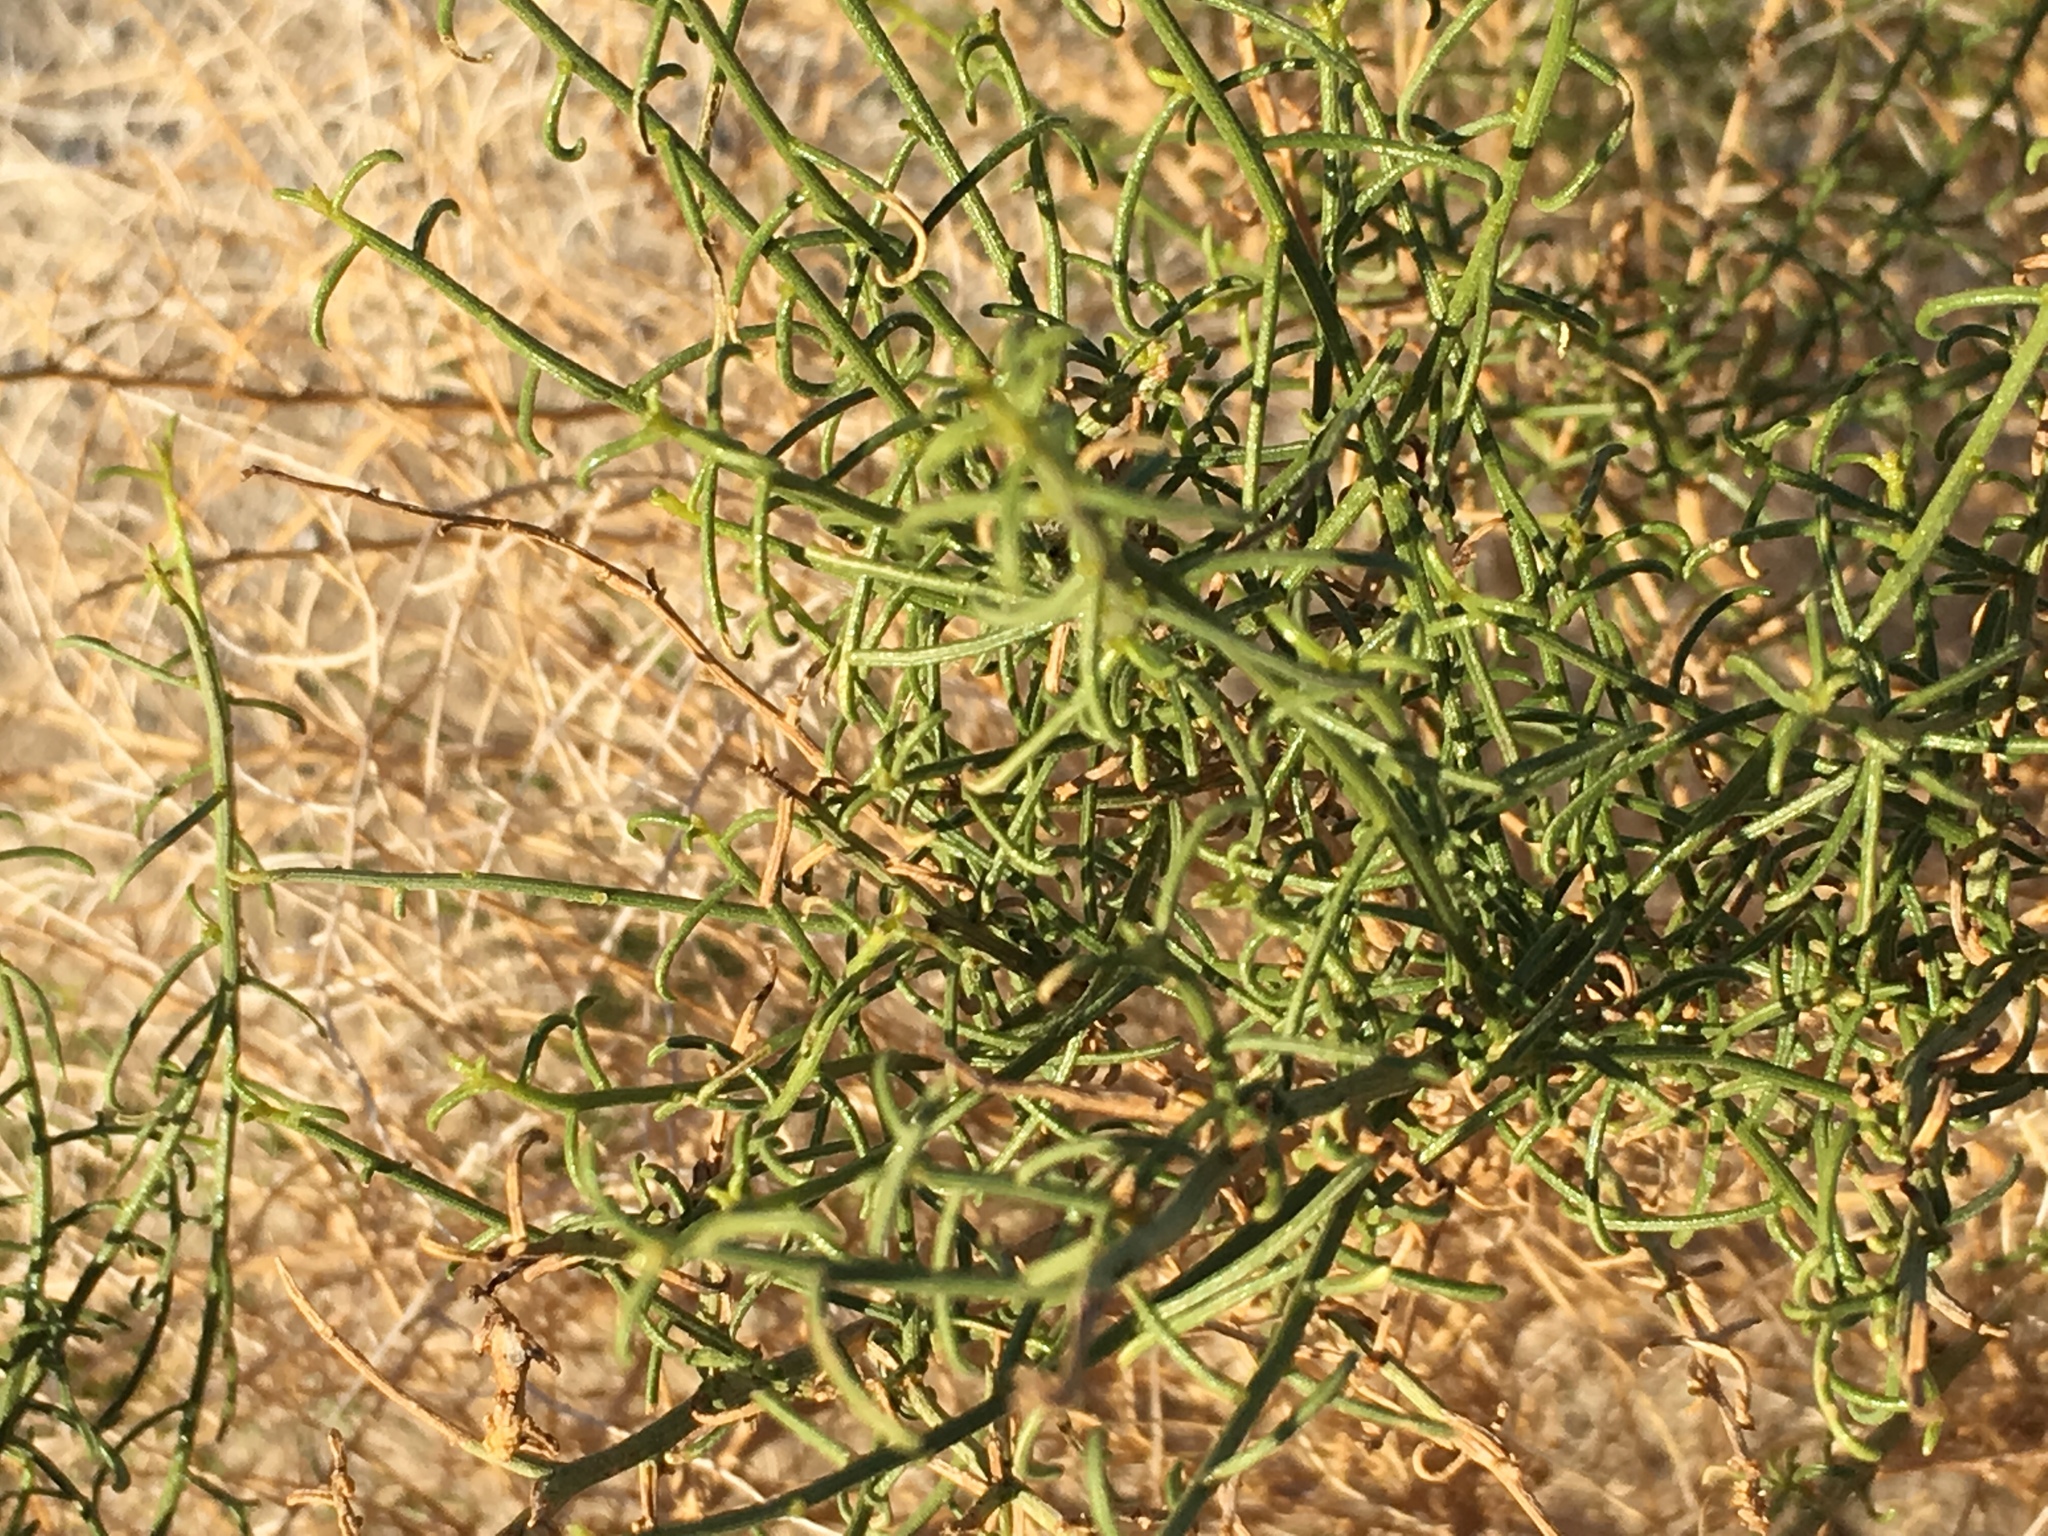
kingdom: Plantae
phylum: Tracheophyta
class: Magnoliopsida
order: Asterales
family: Asteraceae
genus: Ambrosia
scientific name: Ambrosia salsola
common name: Burrobrush
